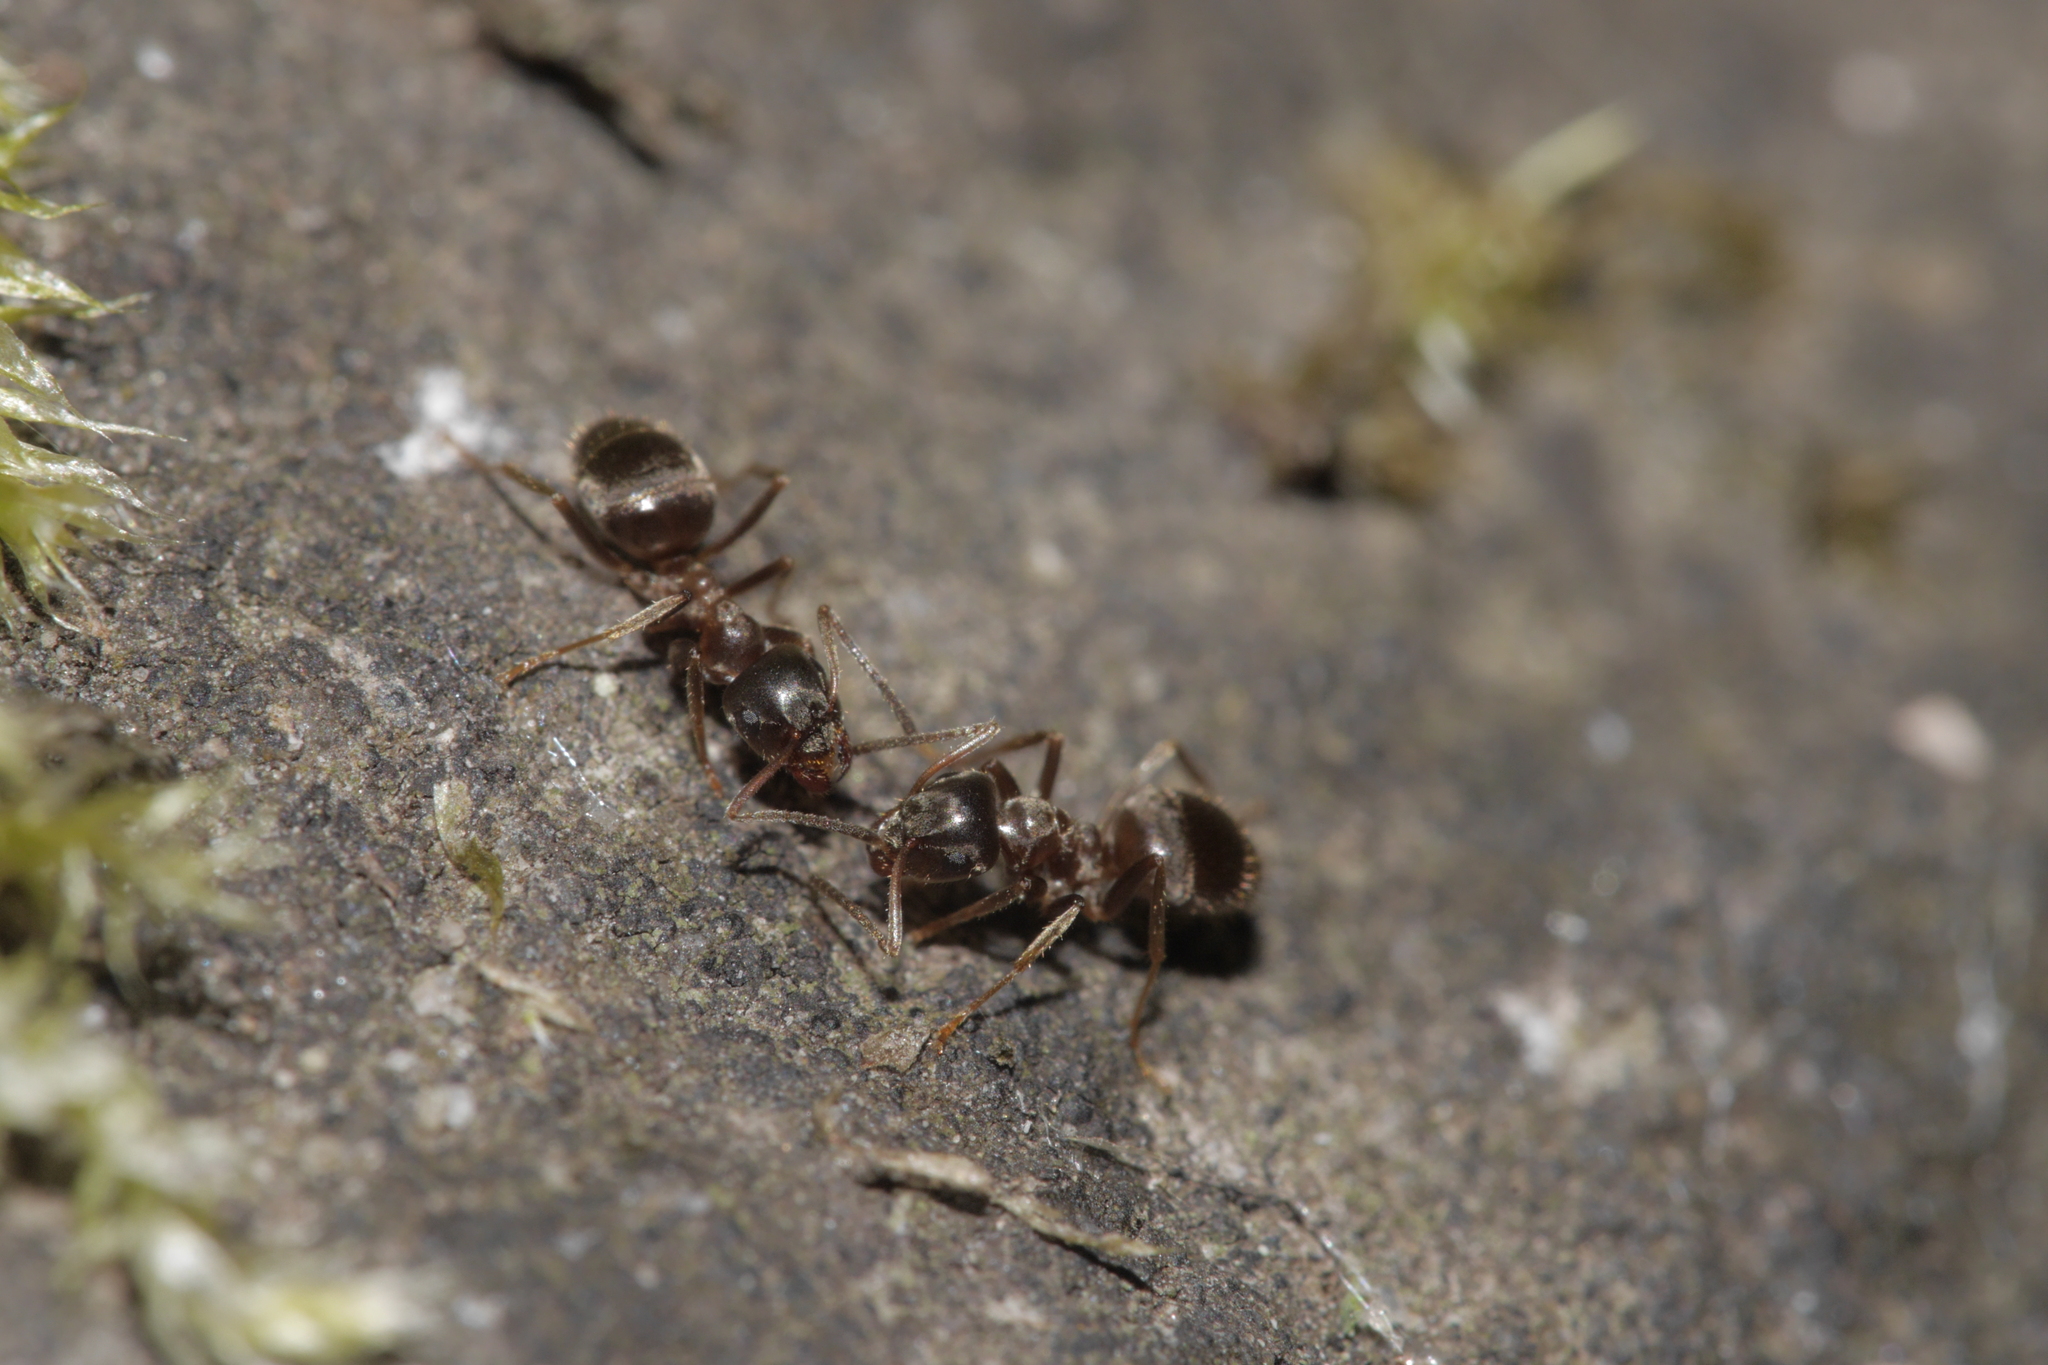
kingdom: Animalia
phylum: Arthropoda
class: Insecta
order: Hymenoptera
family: Formicidae
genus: Lasius
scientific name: Lasius niger
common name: Small black ant
